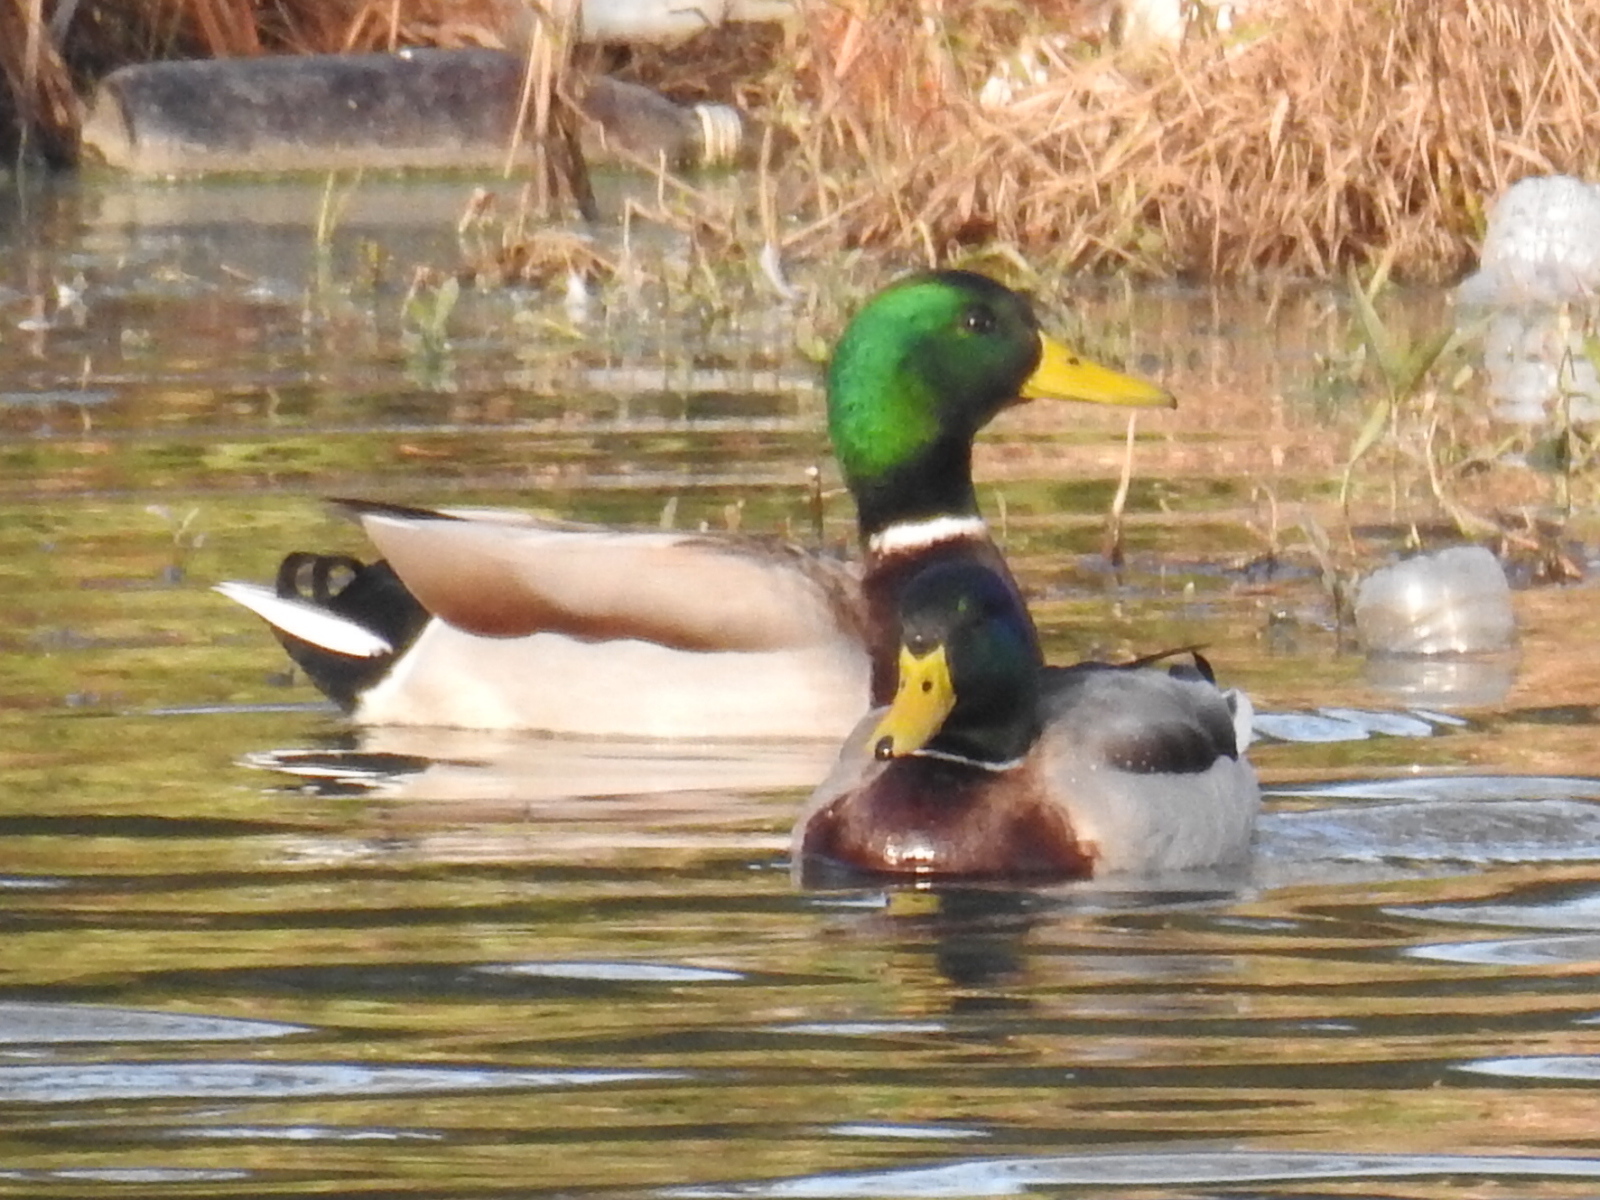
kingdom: Animalia
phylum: Chordata
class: Aves
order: Anseriformes
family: Anatidae
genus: Anas
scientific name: Anas platyrhynchos
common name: Mallard
